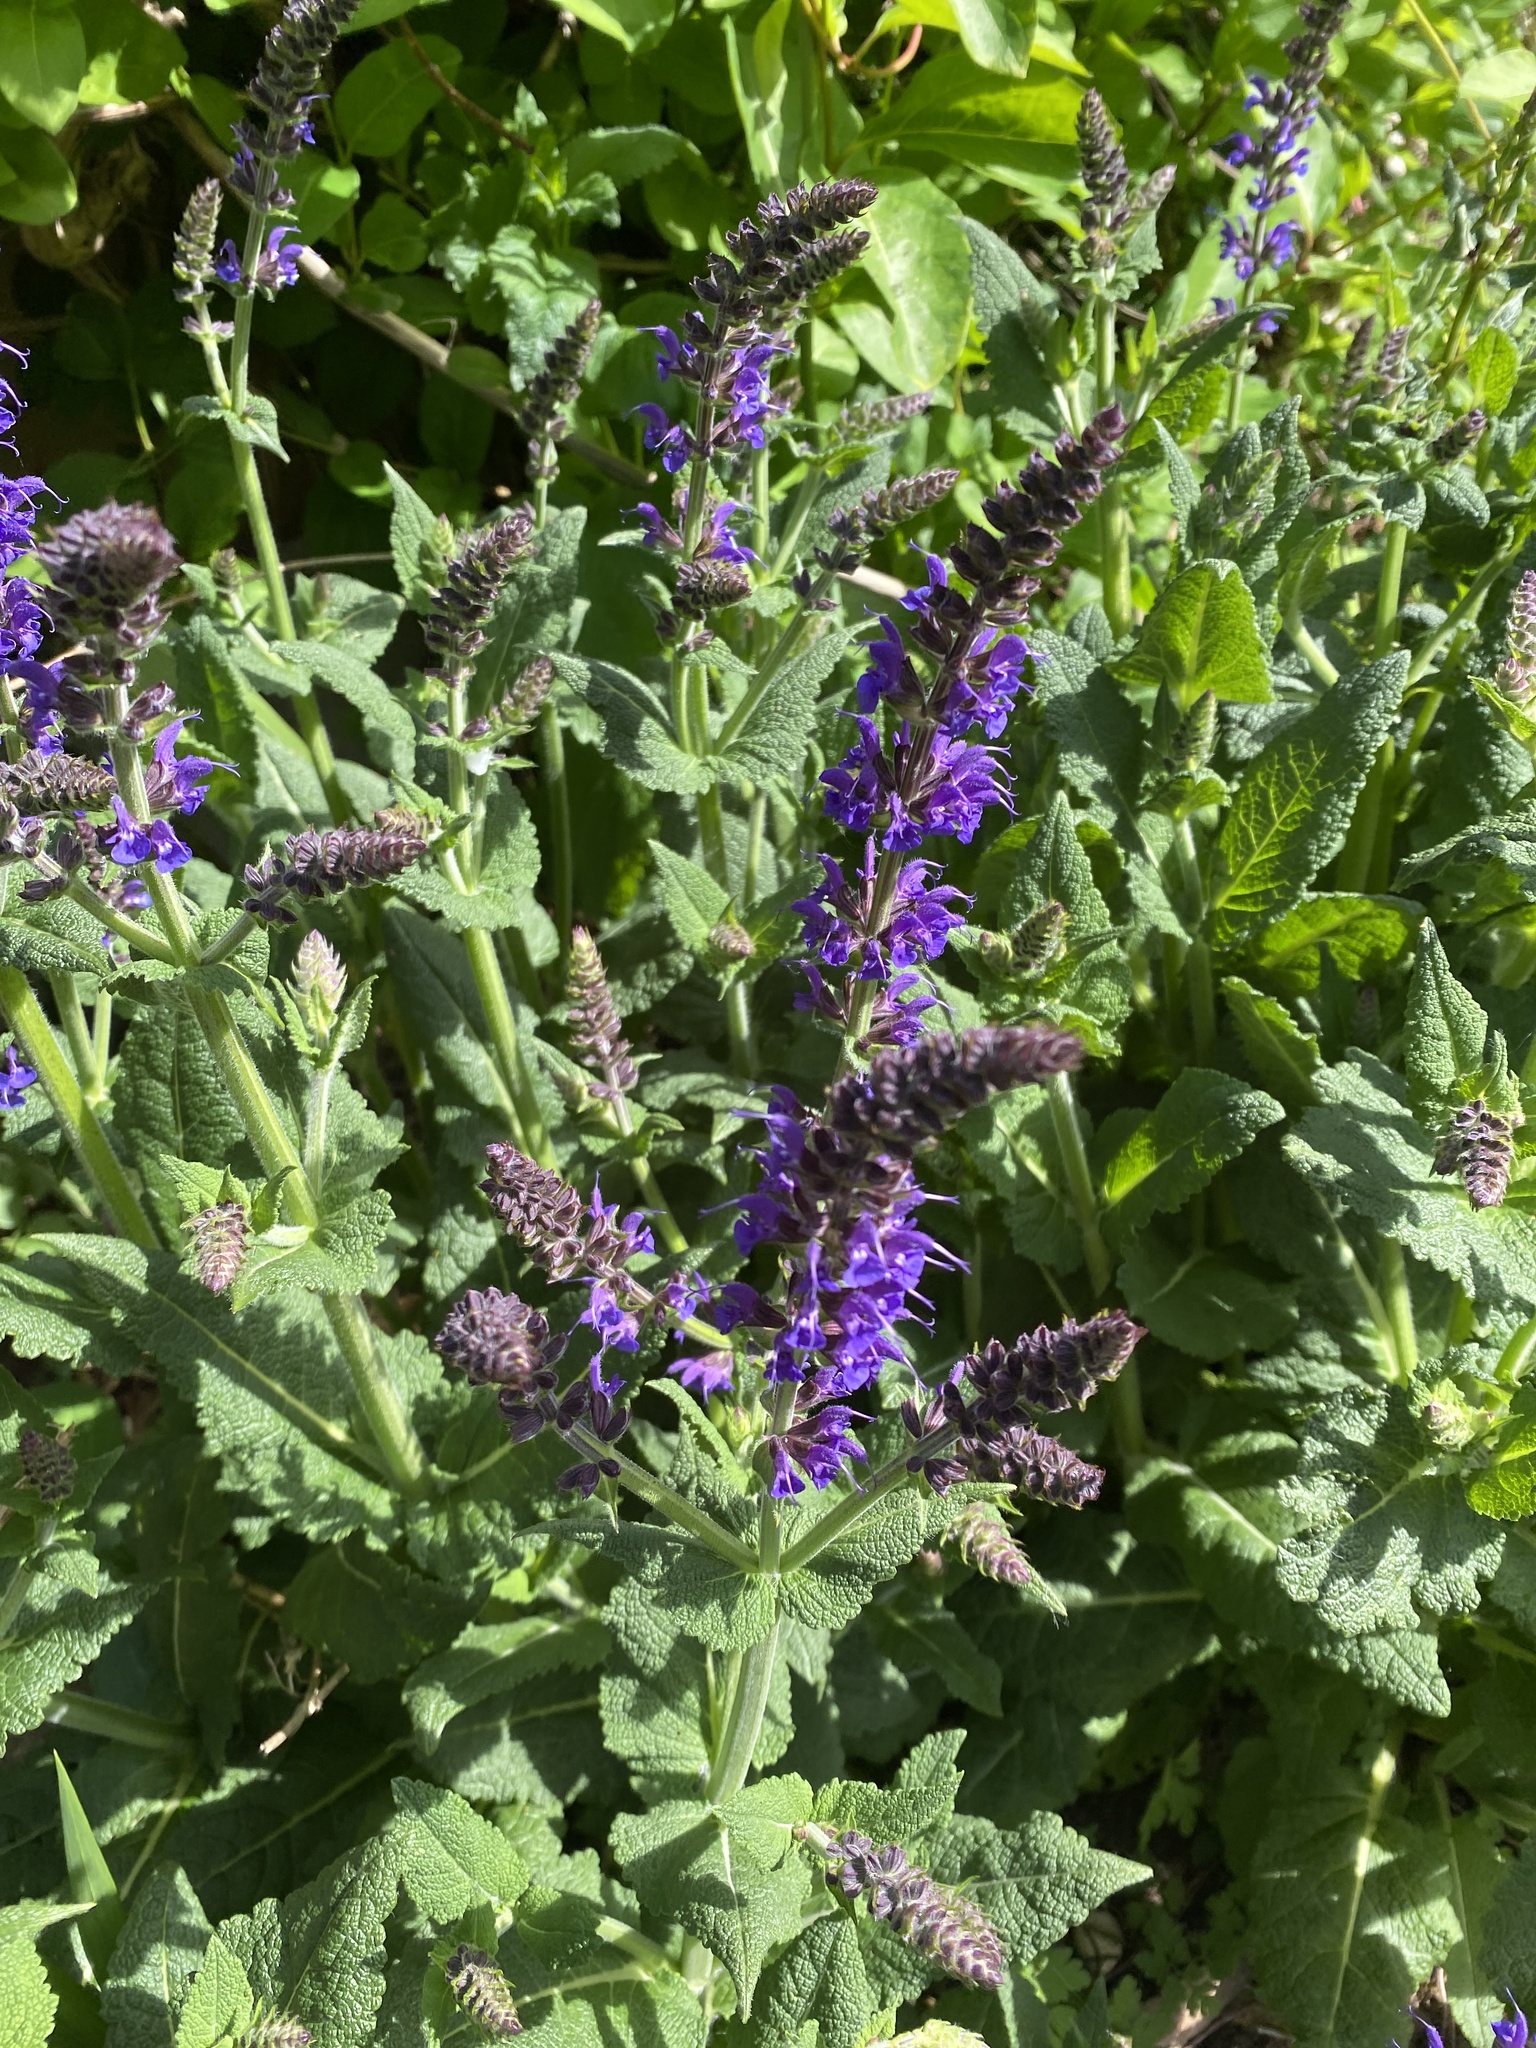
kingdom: Plantae
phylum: Tracheophyta
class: Magnoliopsida
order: Lamiales
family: Lamiaceae
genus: Salvia
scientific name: Salvia nemorosa
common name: Balkan clary
